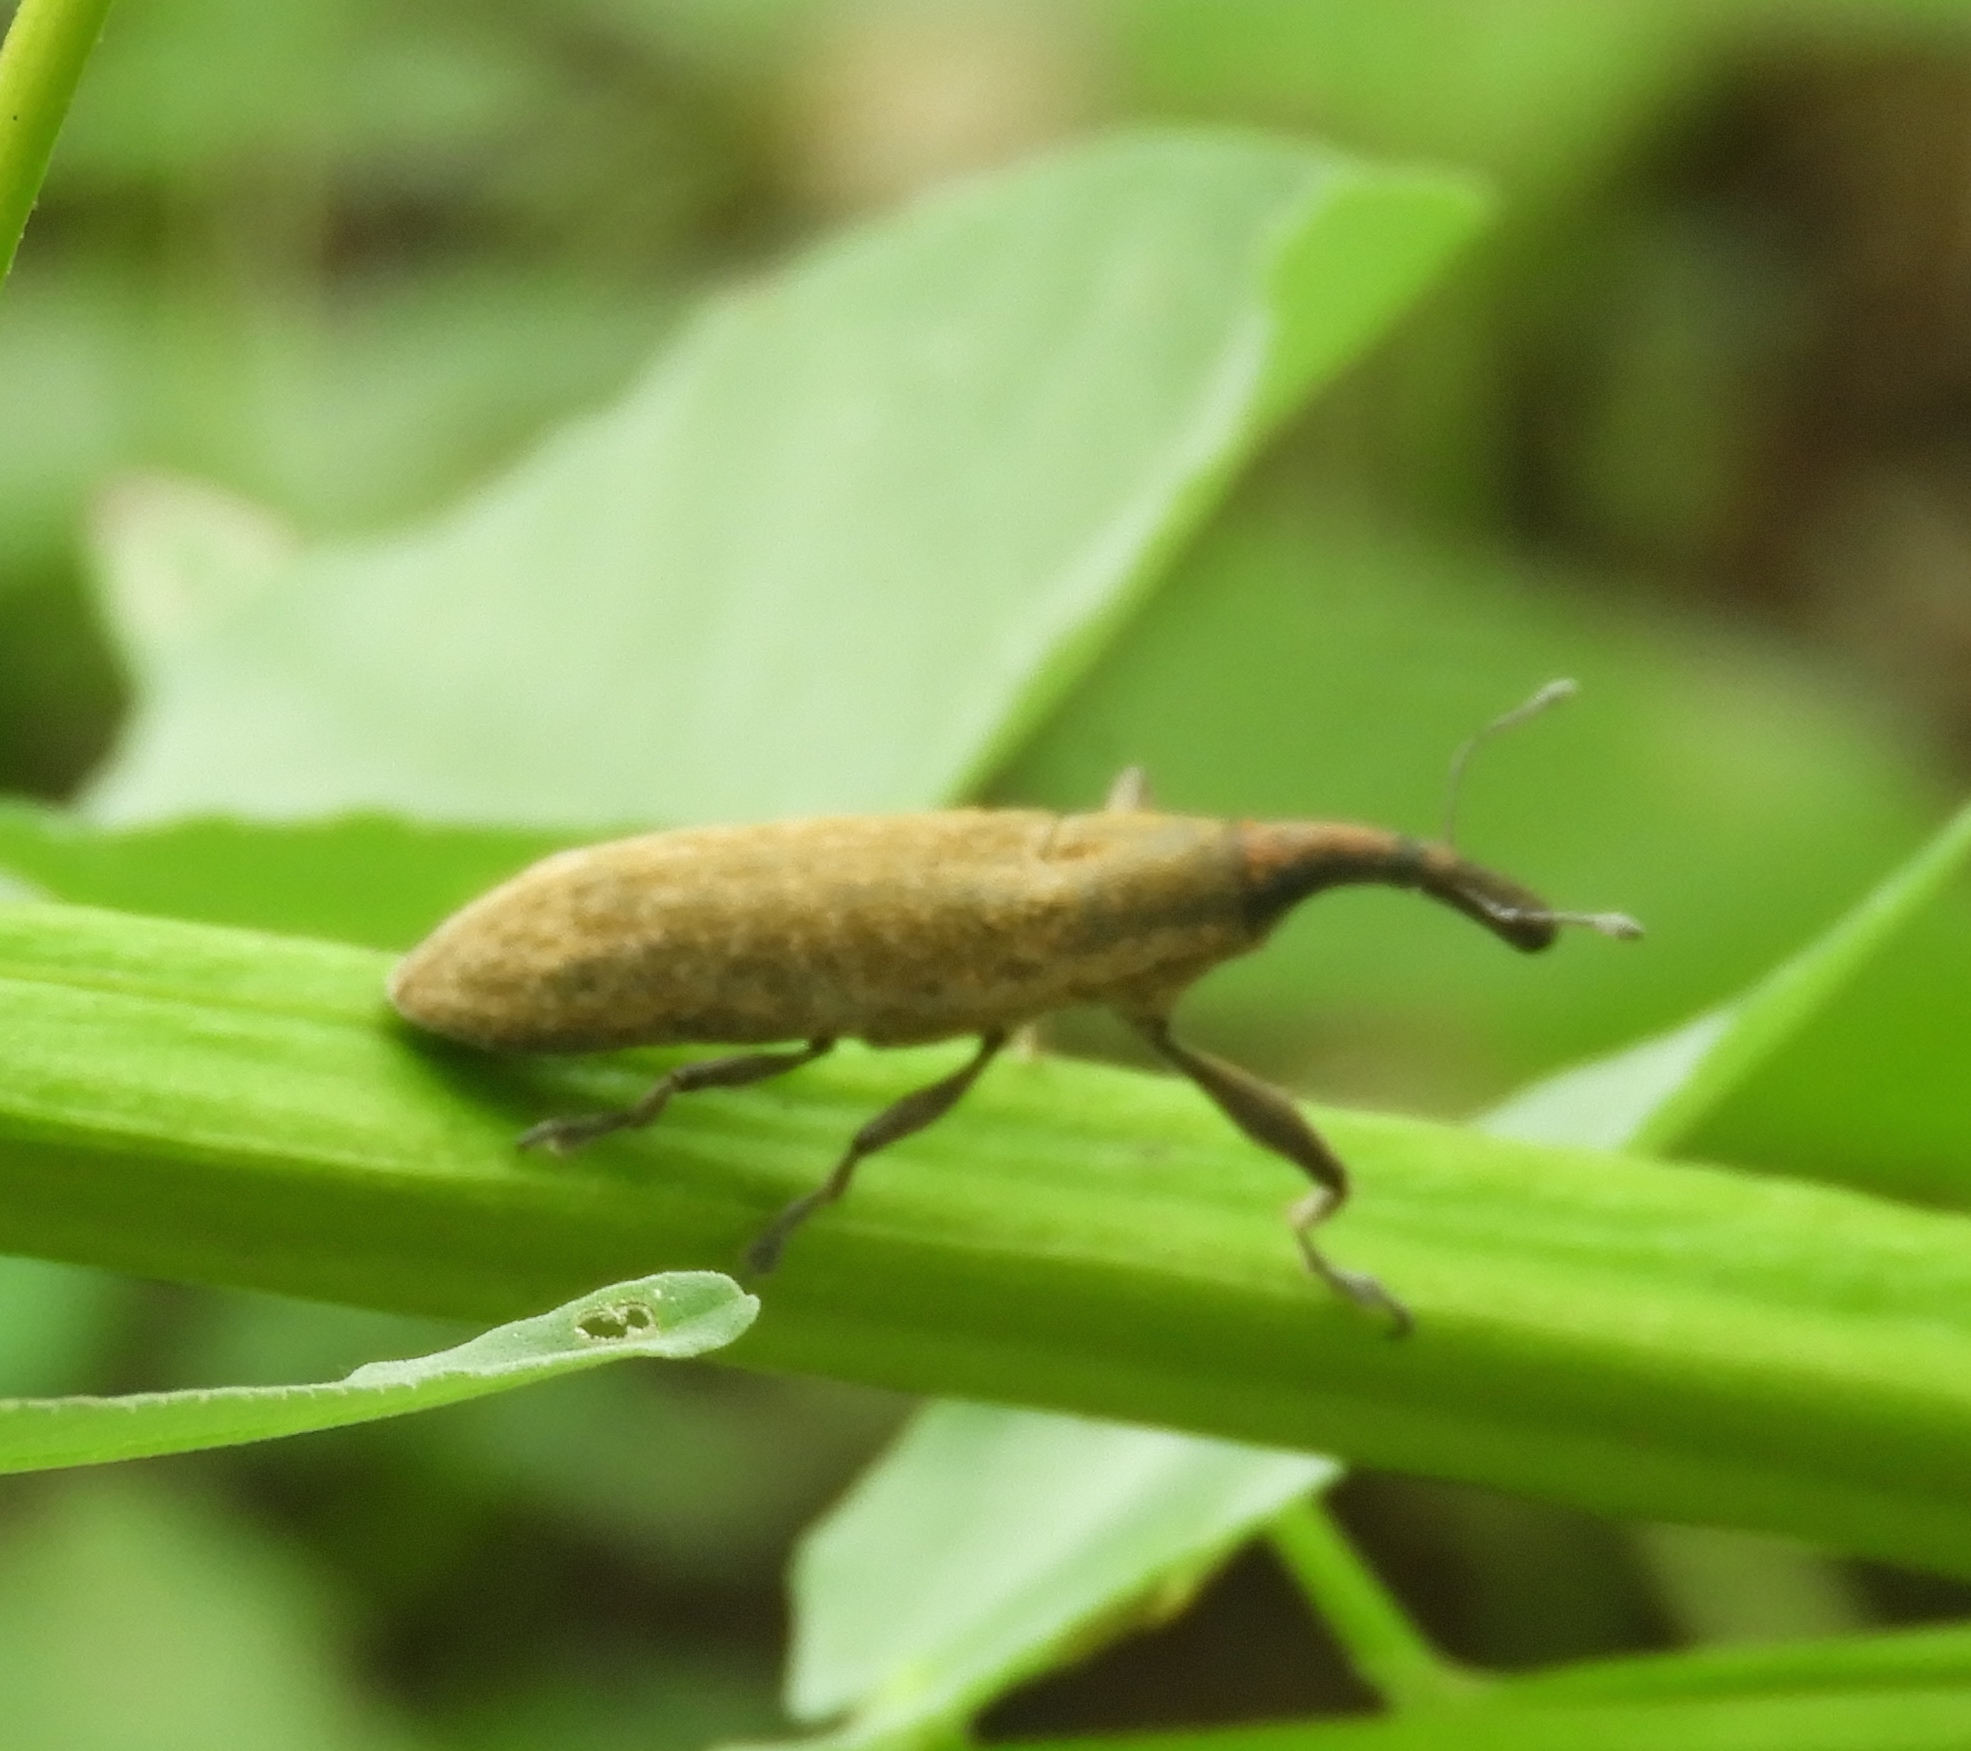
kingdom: Animalia
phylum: Arthropoda
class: Insecta
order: Coleoptera
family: Curculionidae
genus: Lixus
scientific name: Lixus
